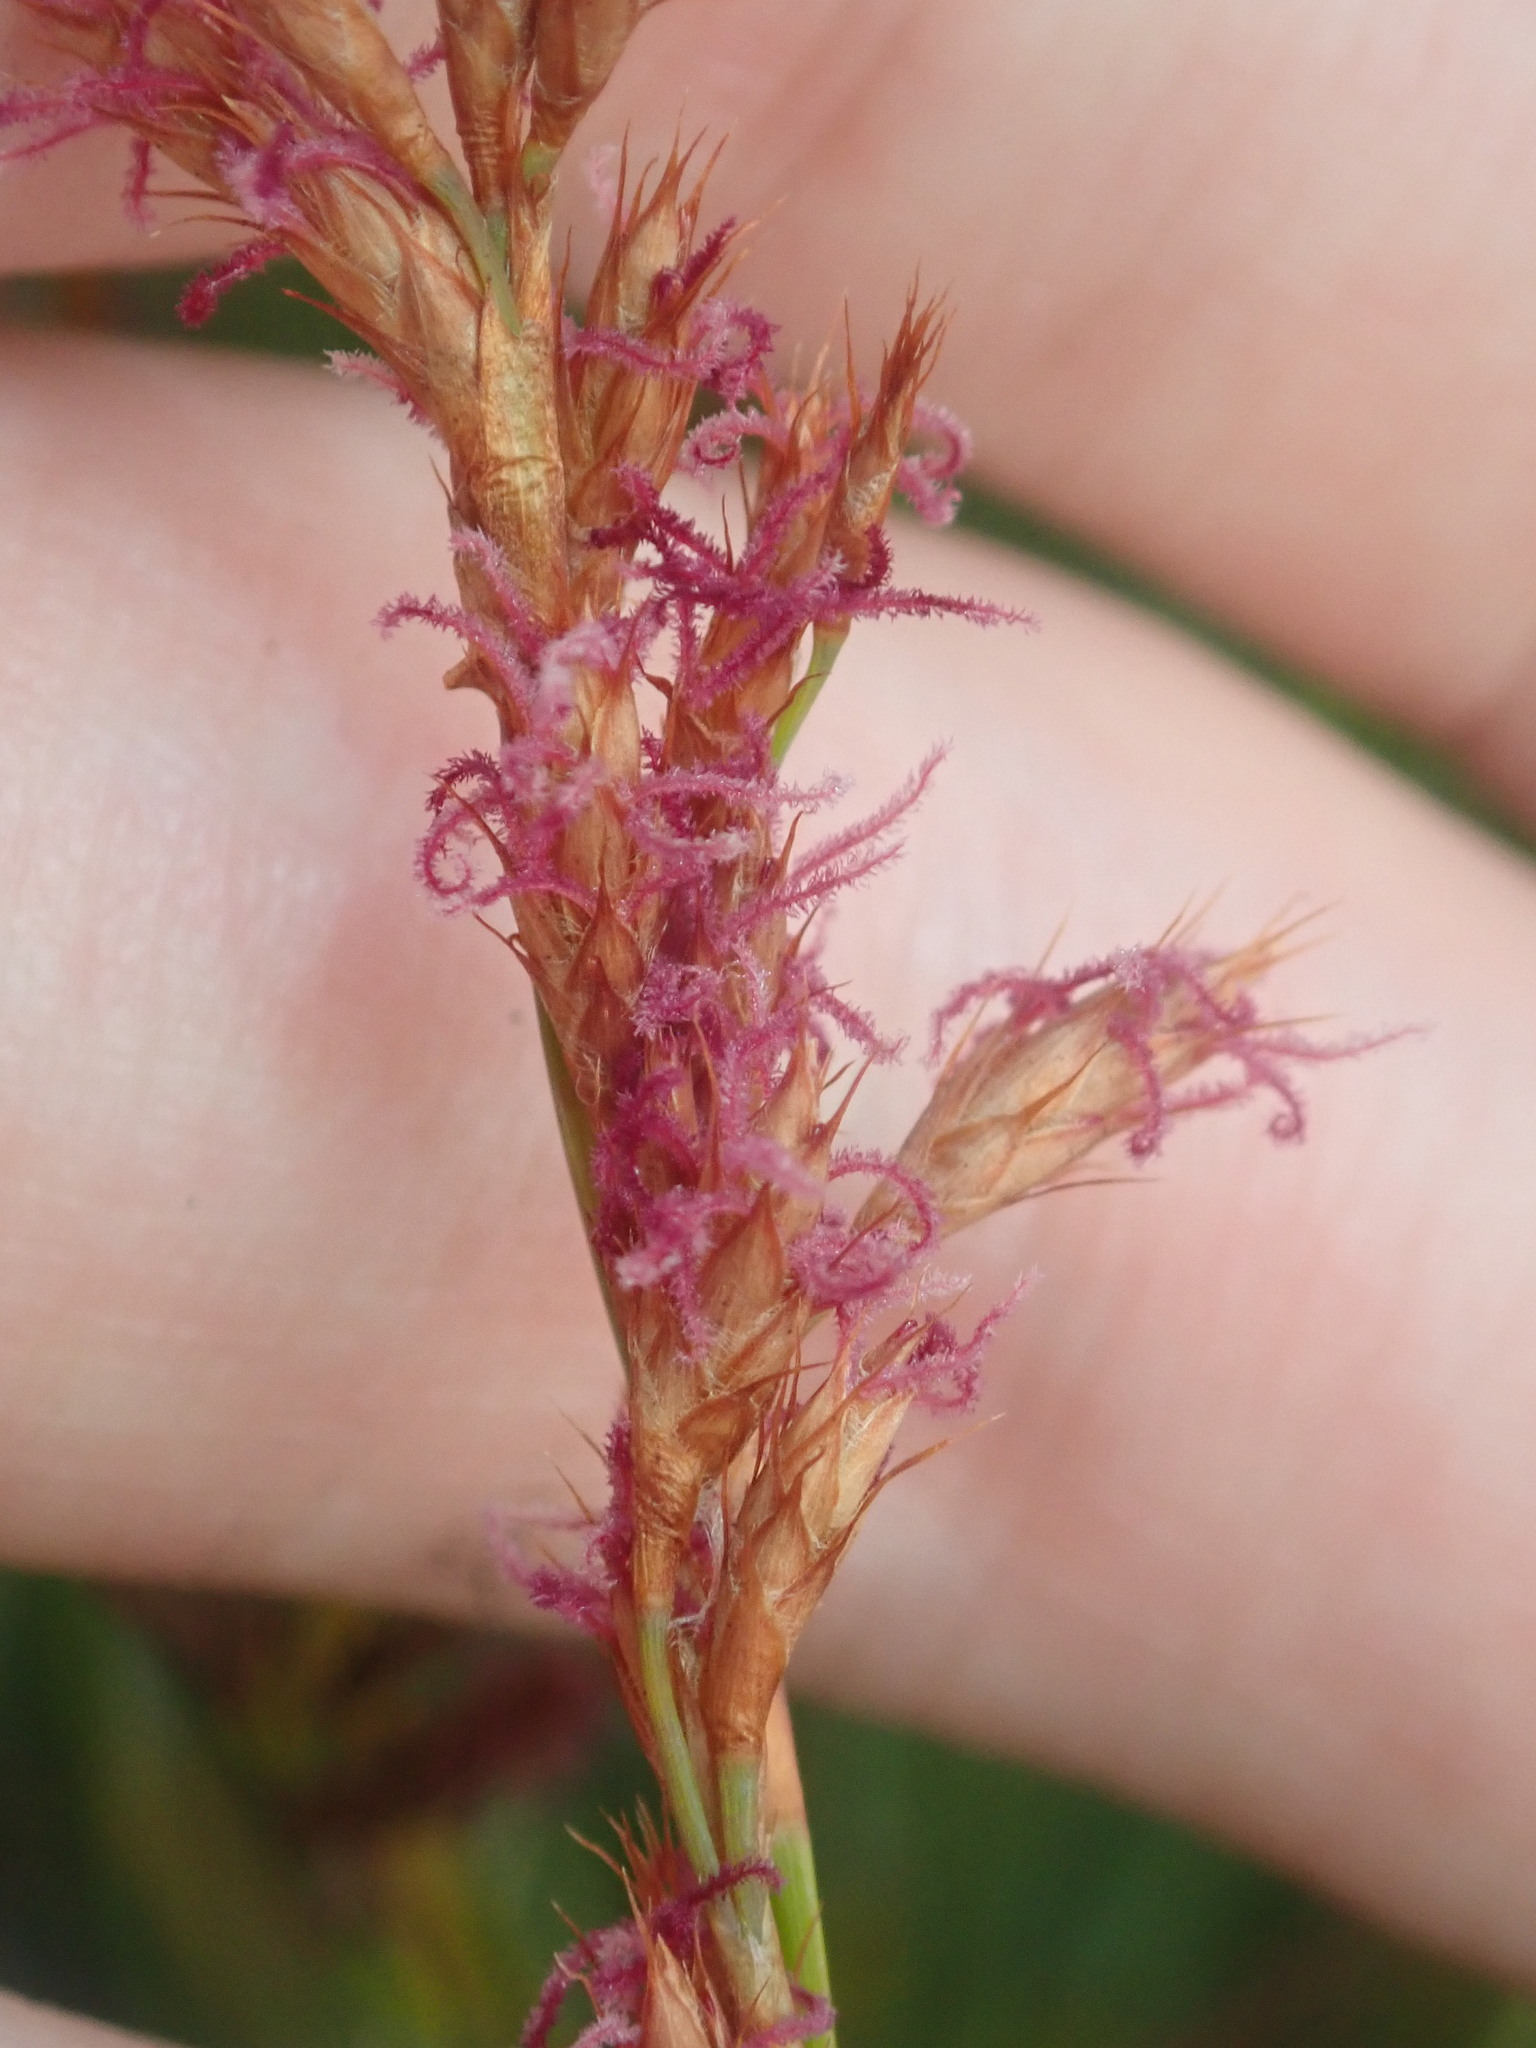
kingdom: Plantae
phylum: Tracheophyta
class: Liliopsida
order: Poales
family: Restionaceae
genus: Eurychorda
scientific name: Eurychorda complanata
